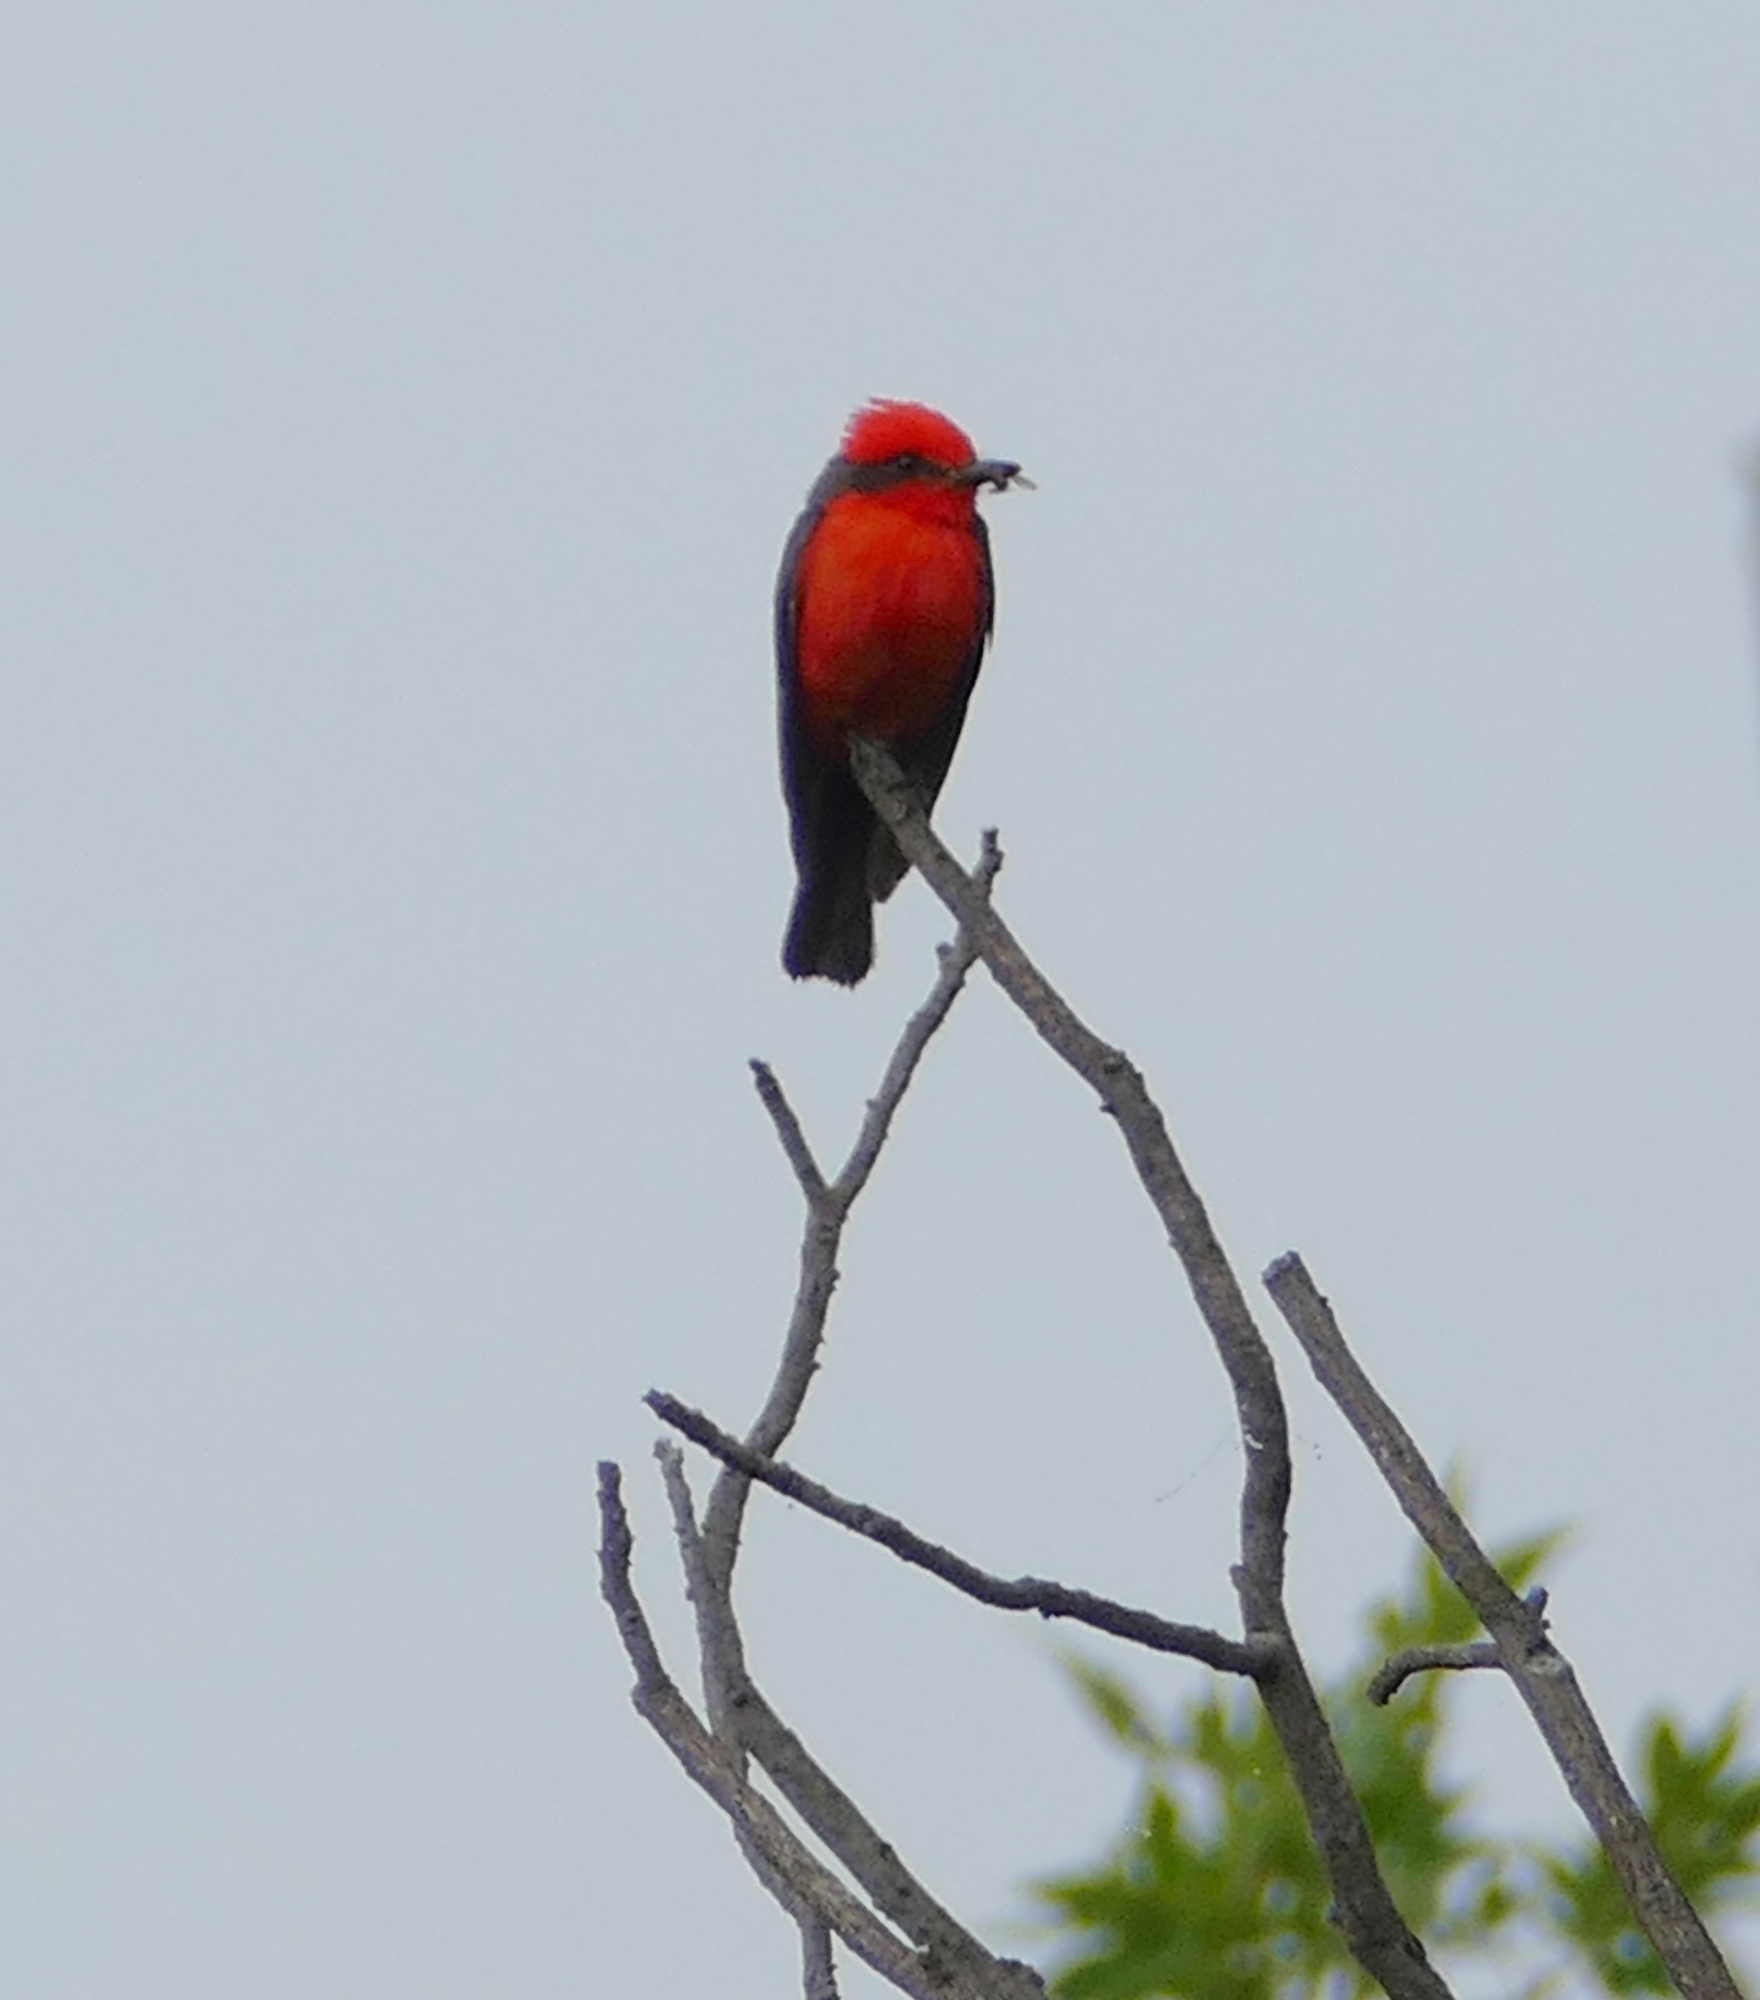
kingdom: Animalia
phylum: Chordata
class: Aves
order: Passeriformes
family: Tyrannidae
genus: Pyrocephalus
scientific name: Pyrocephalus rubinus
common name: Vermilion flycatcher
